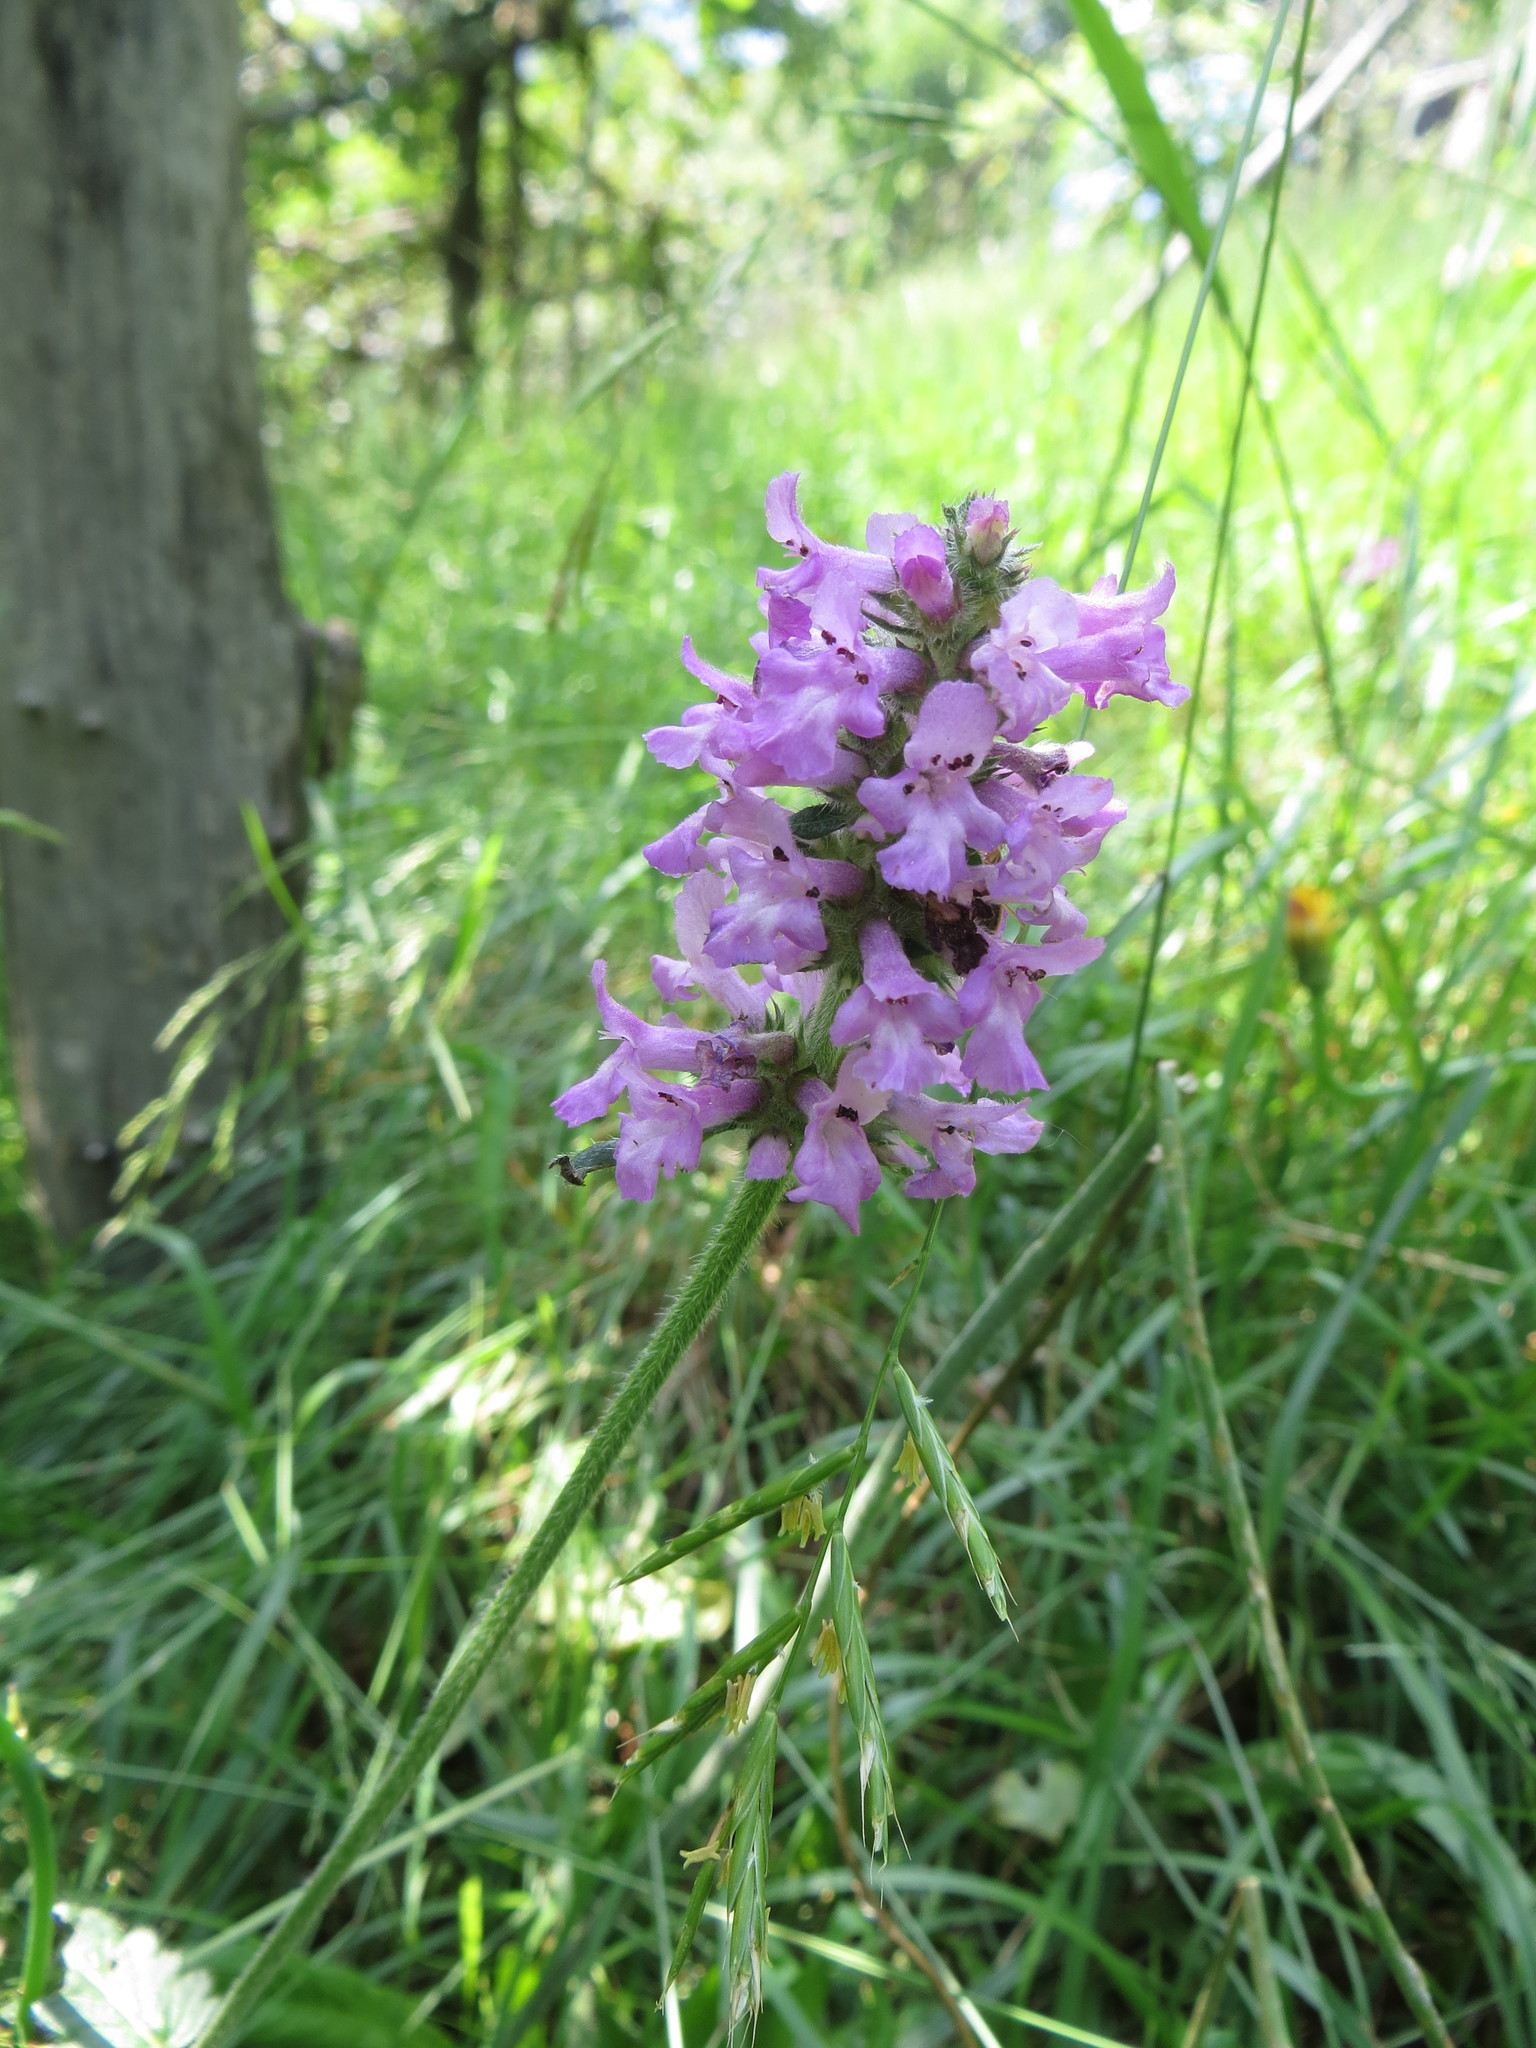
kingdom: Plantae
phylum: Tracheophyta
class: Magnoliopsida
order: Lamiales
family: Lamiaceae
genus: Betonica
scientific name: Betonica officinalis
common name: Bishop's-wort
